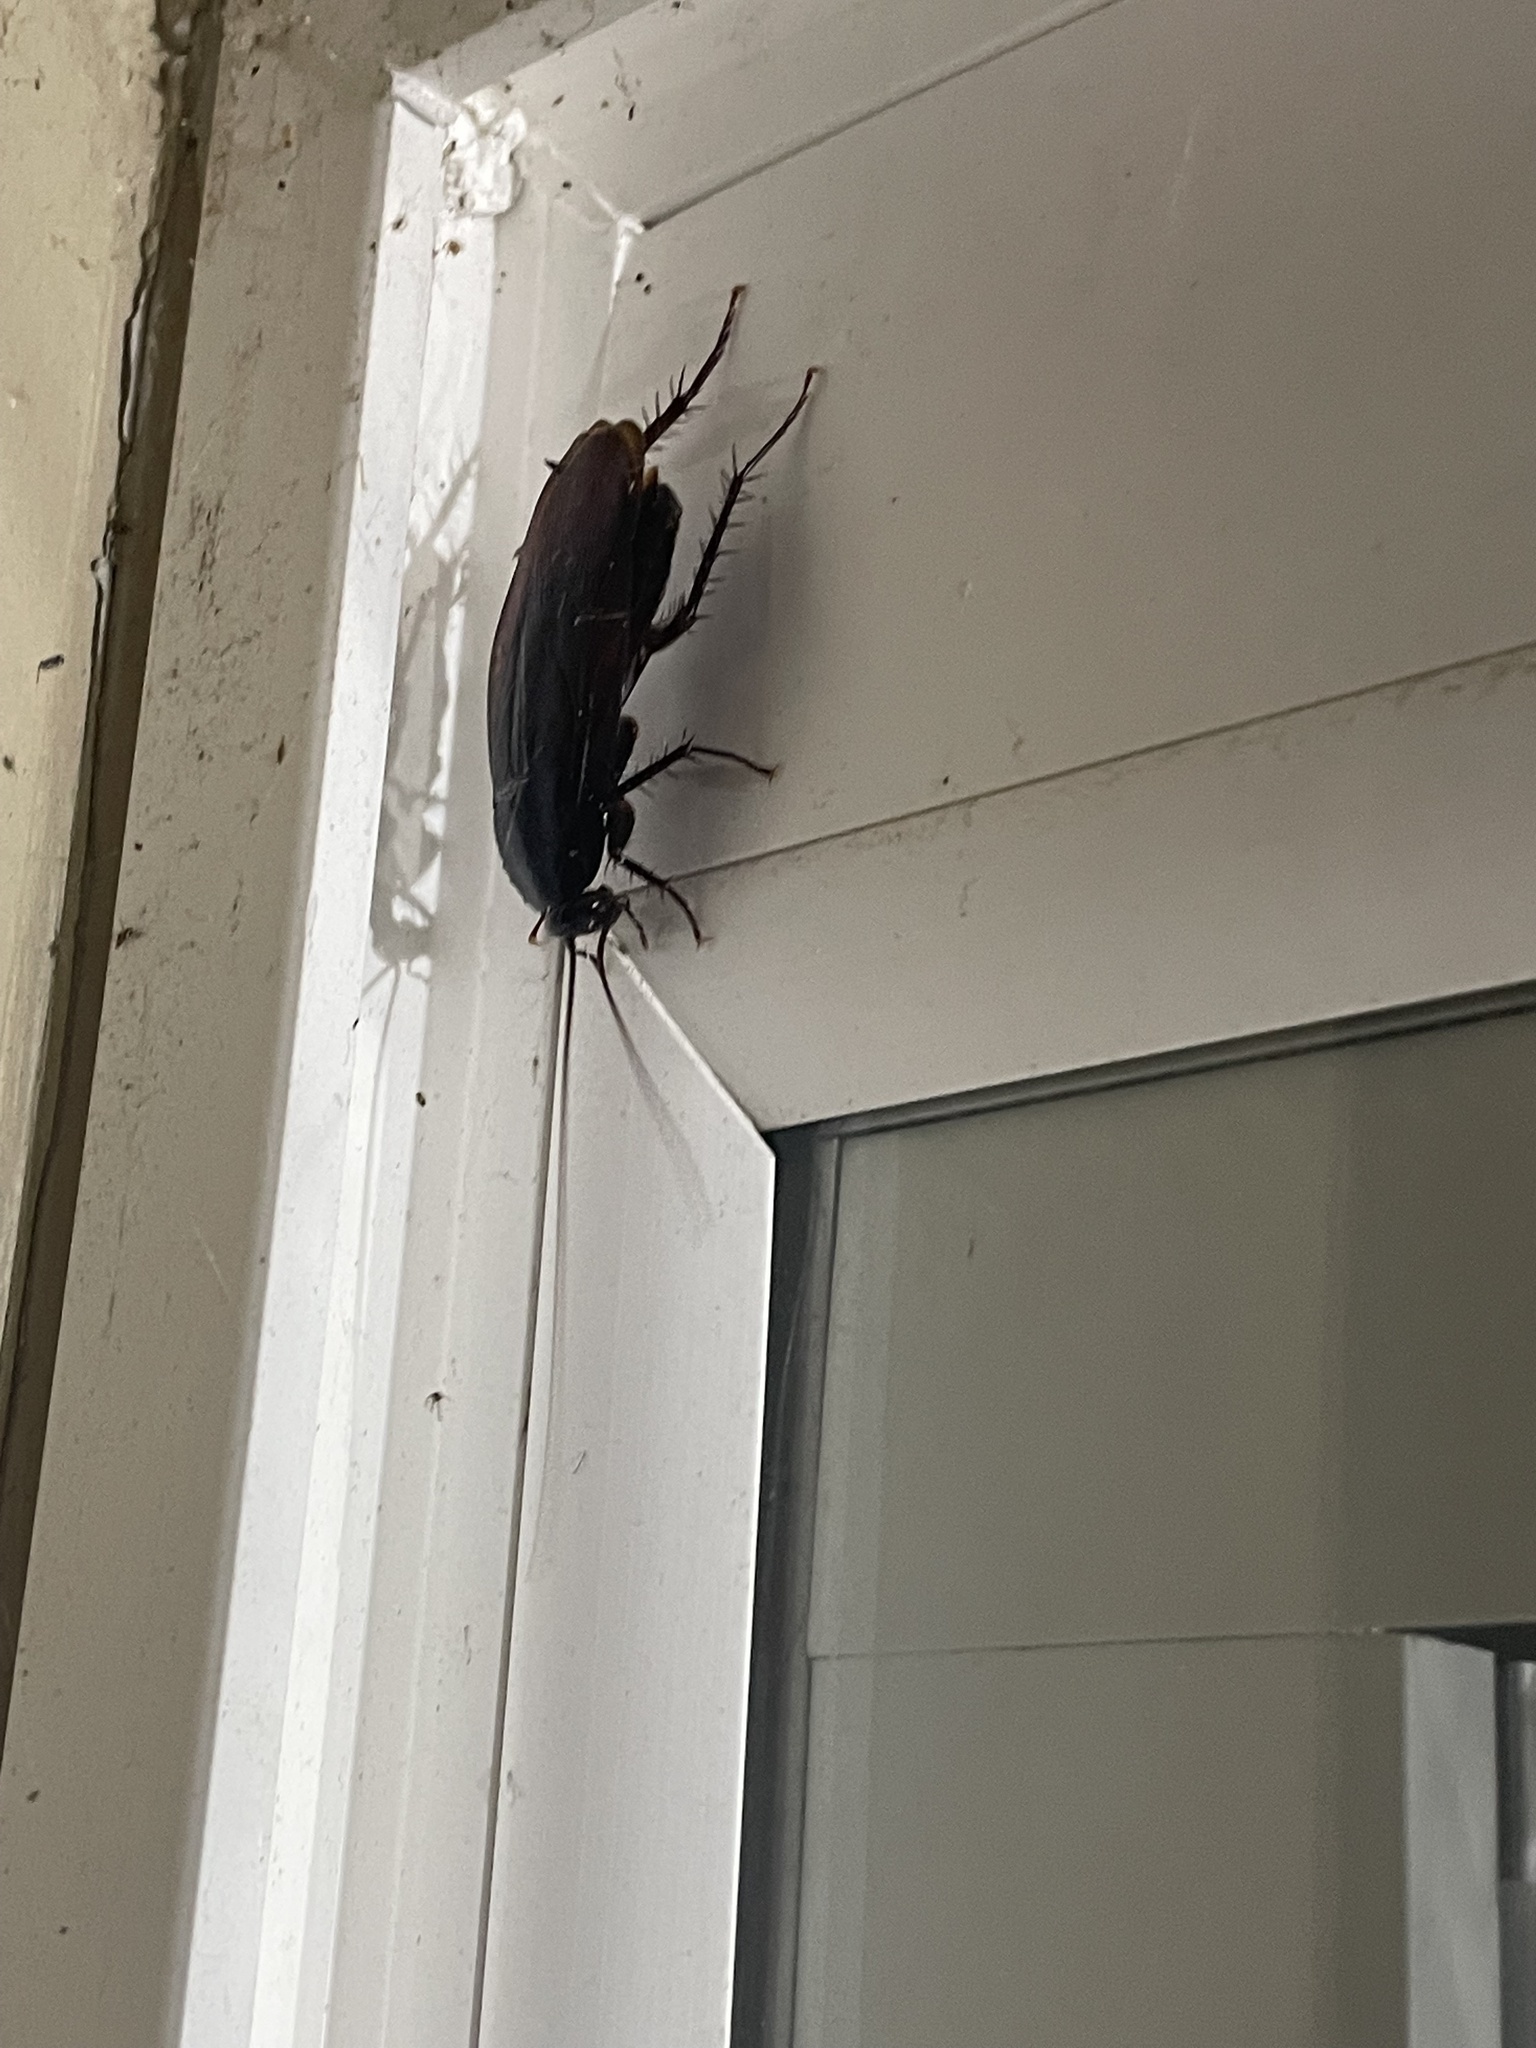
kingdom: Animalia
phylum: Arthropoda
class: Insecta
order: Blattodea
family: Blattidae
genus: Periplaneta
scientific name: Periplaneta fuliginosa
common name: Smokeybrown cockroad
